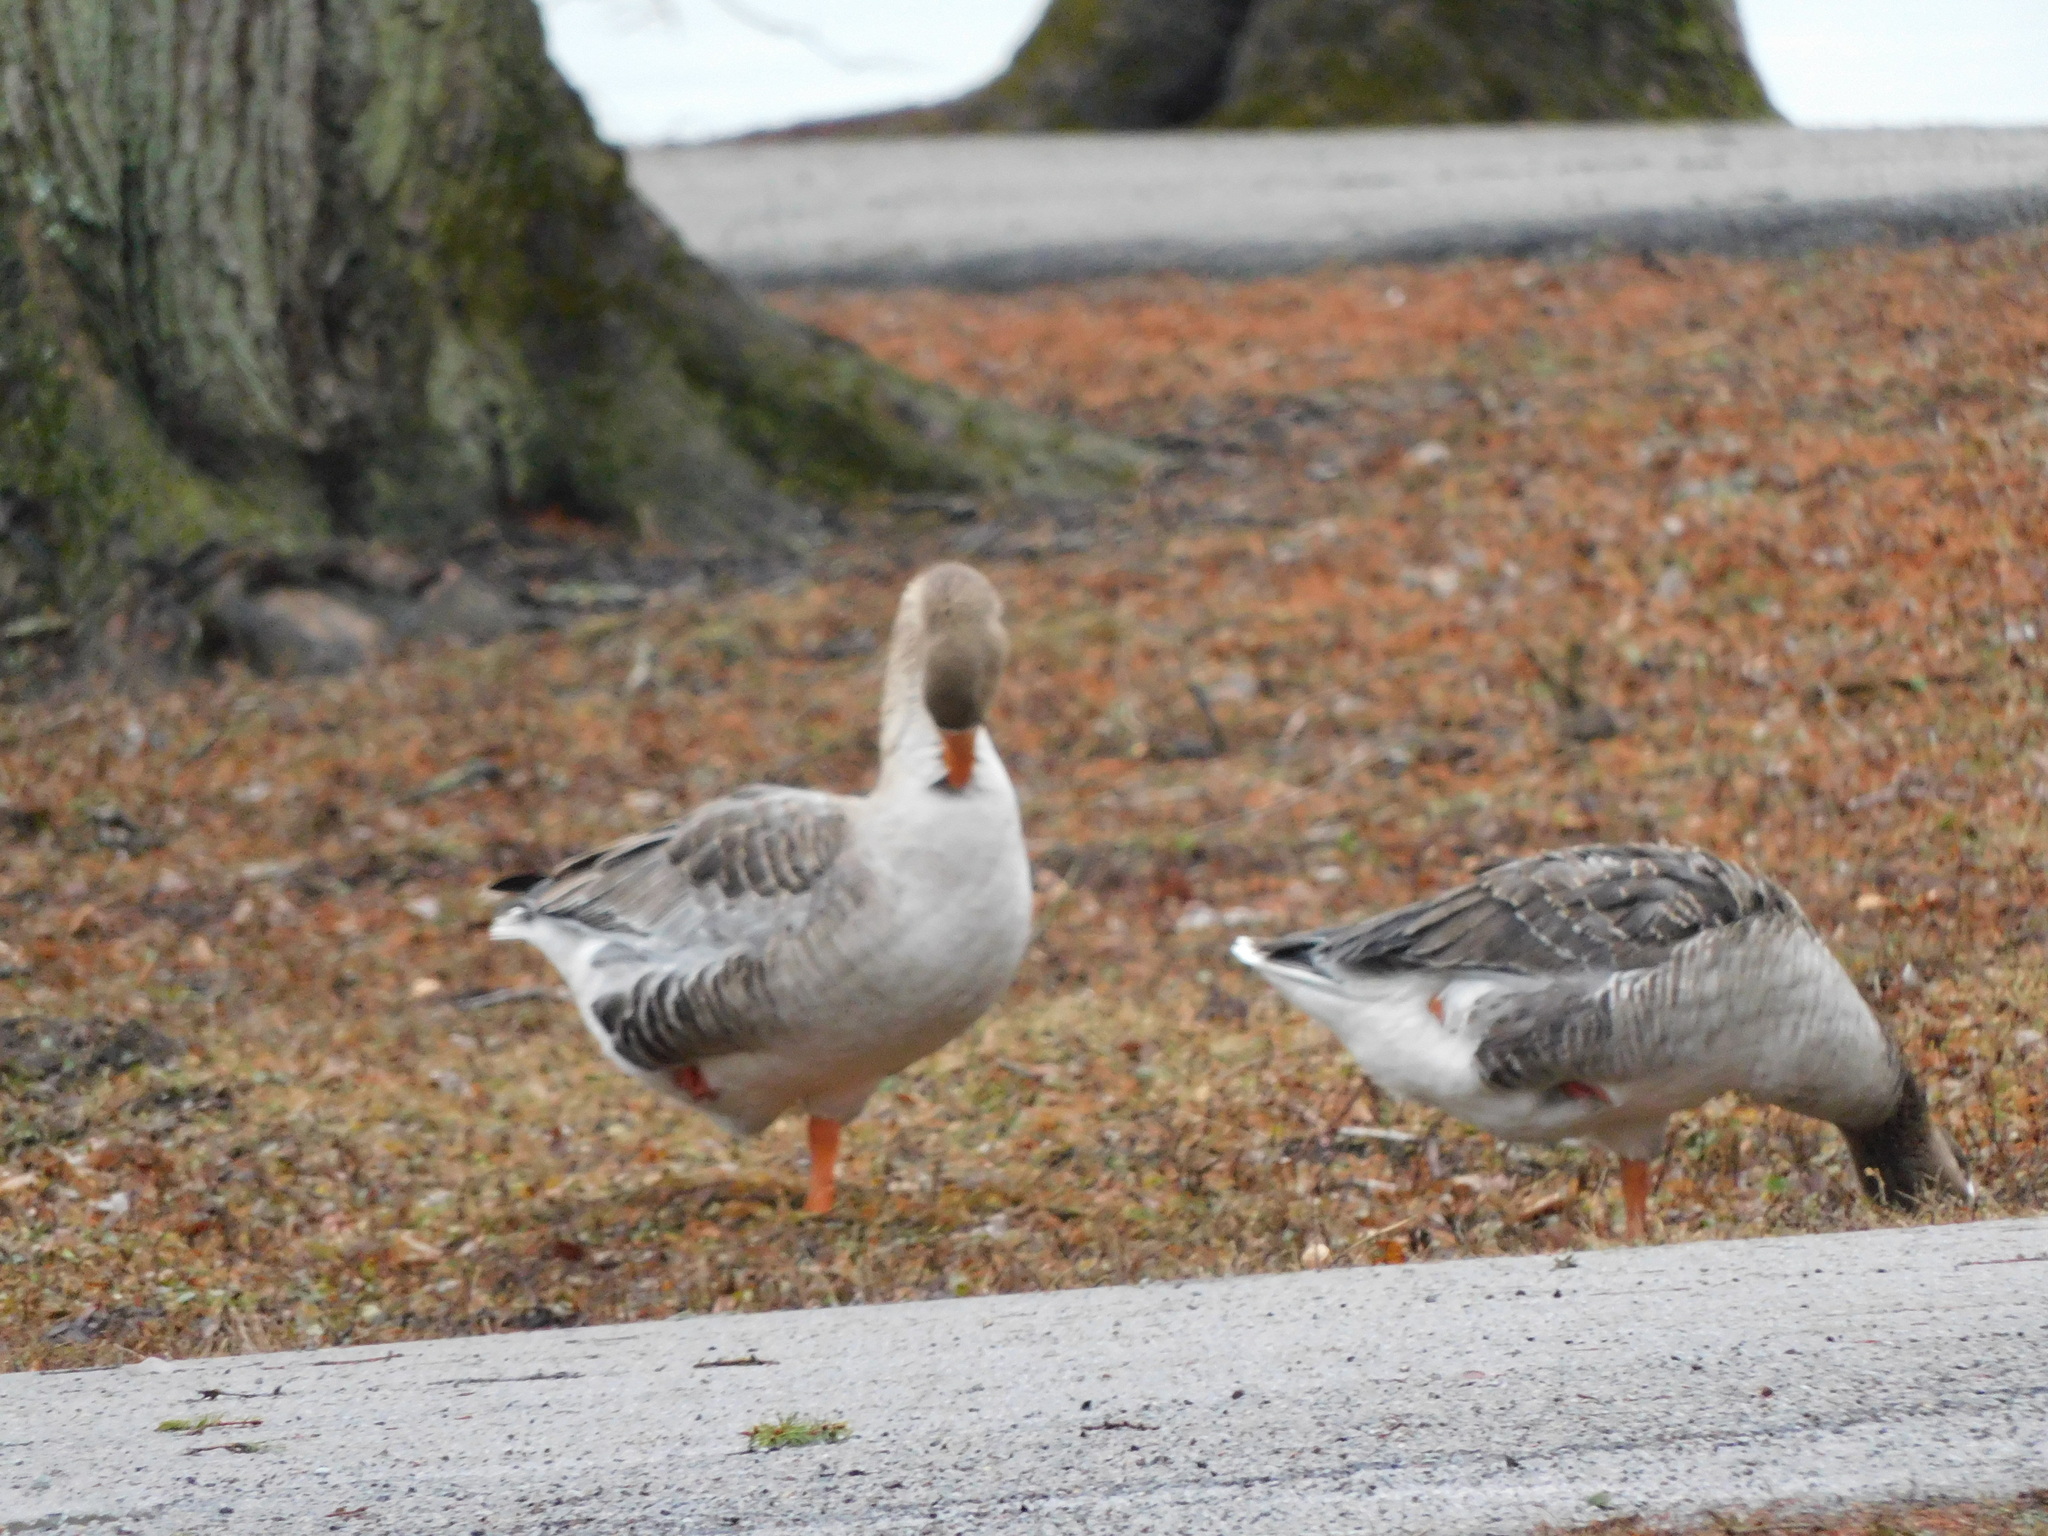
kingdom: Animalia
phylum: Chordata
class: Aves
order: Anseriformes
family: Anatidae
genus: Anser
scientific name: Anser anser
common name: Greylag goose
